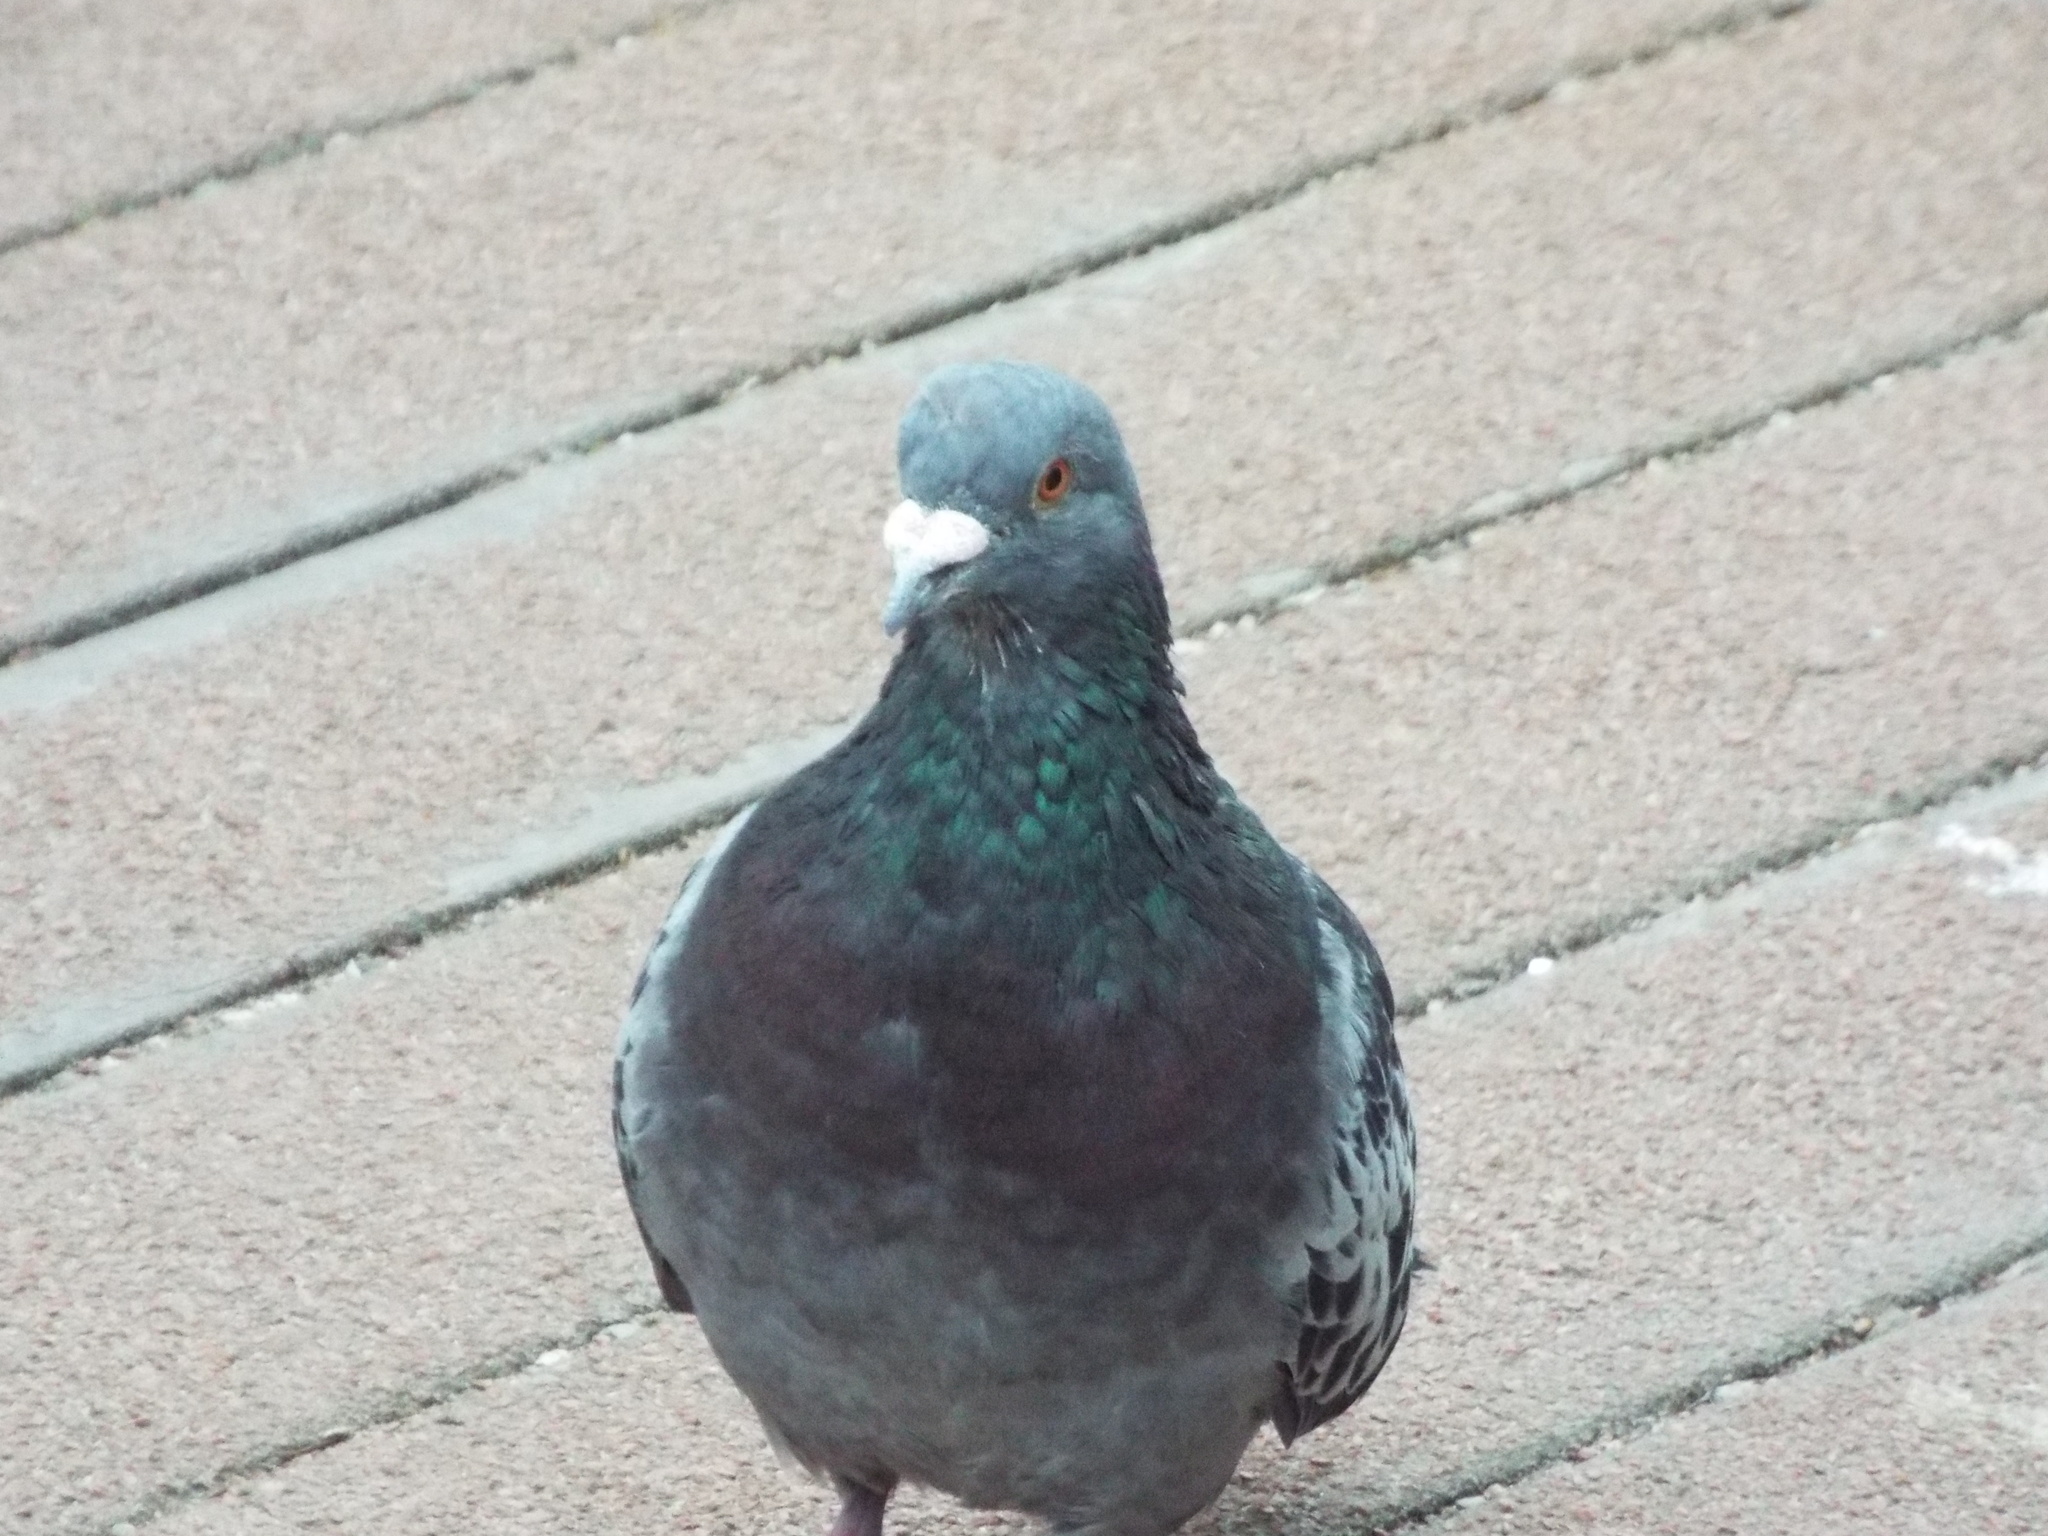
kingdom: Animalia
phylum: Chordata
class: Aves
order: Columbiformes
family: Columbidae
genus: Columba
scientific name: Columba livia
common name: Rock pigeon
